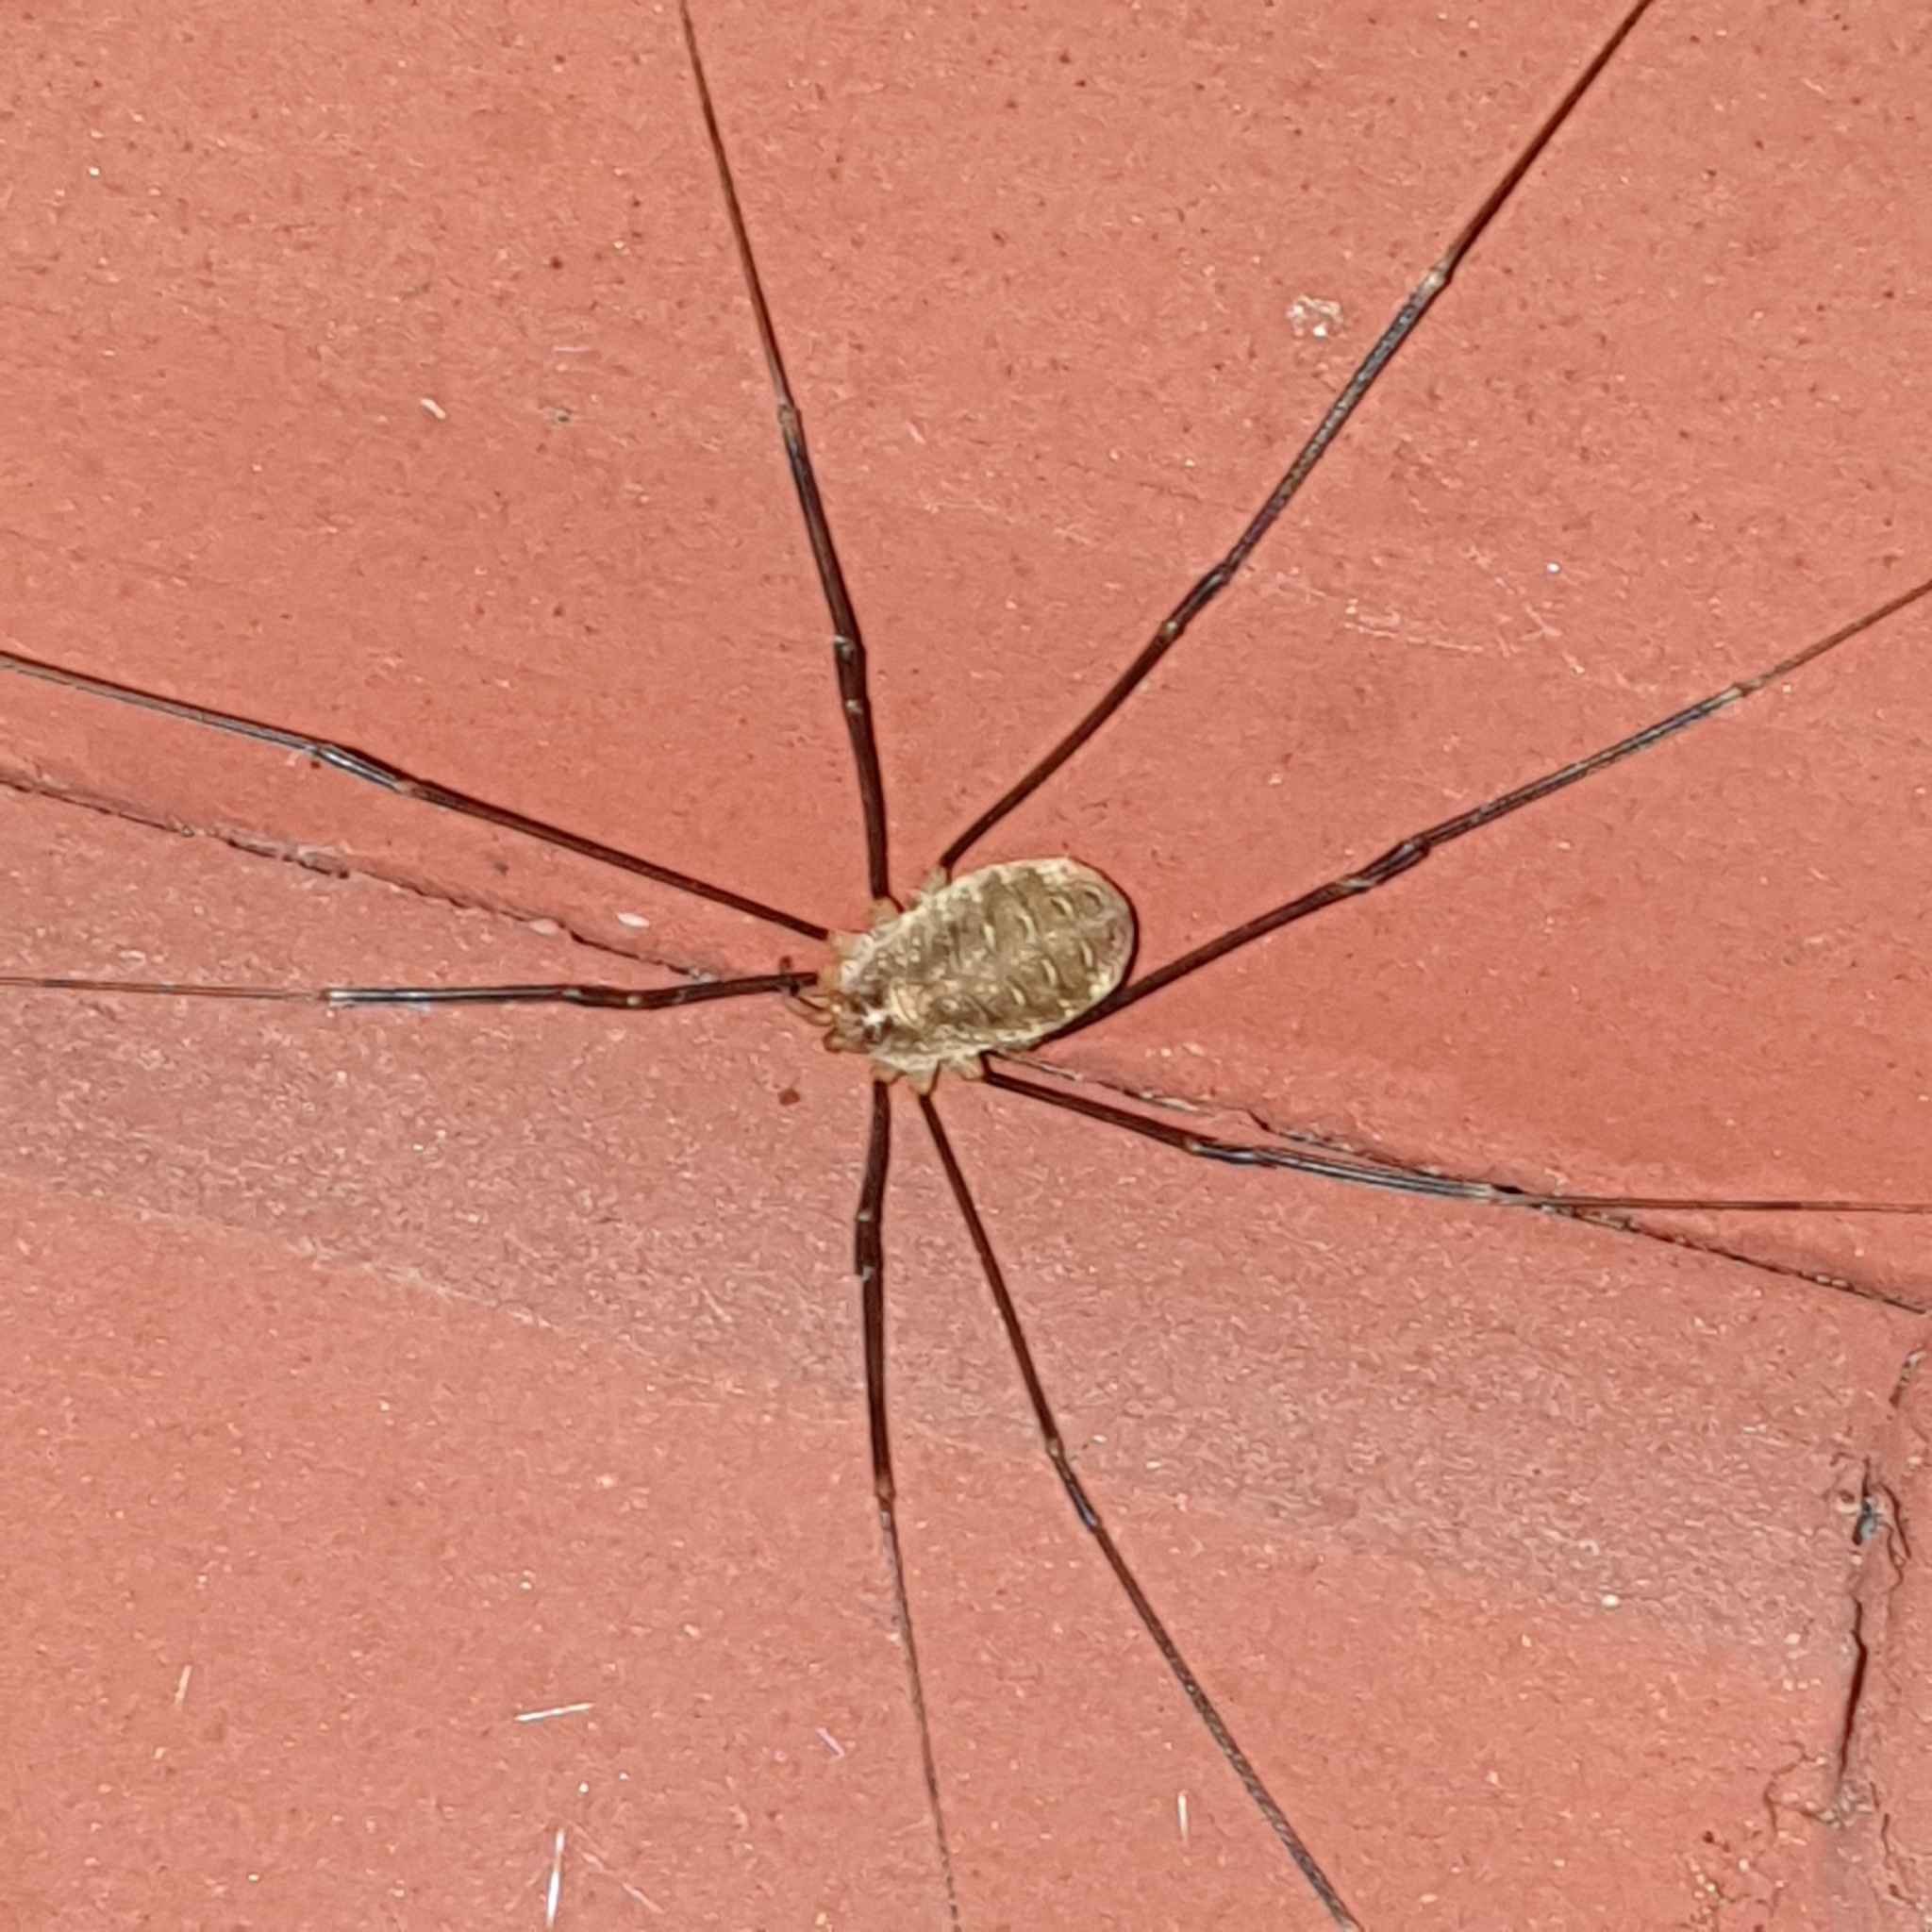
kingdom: Animalia
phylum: Arthropoda
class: Arachnida
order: Opiliones
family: Phalangiidae
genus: Opilio
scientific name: Opilio canestrinii
